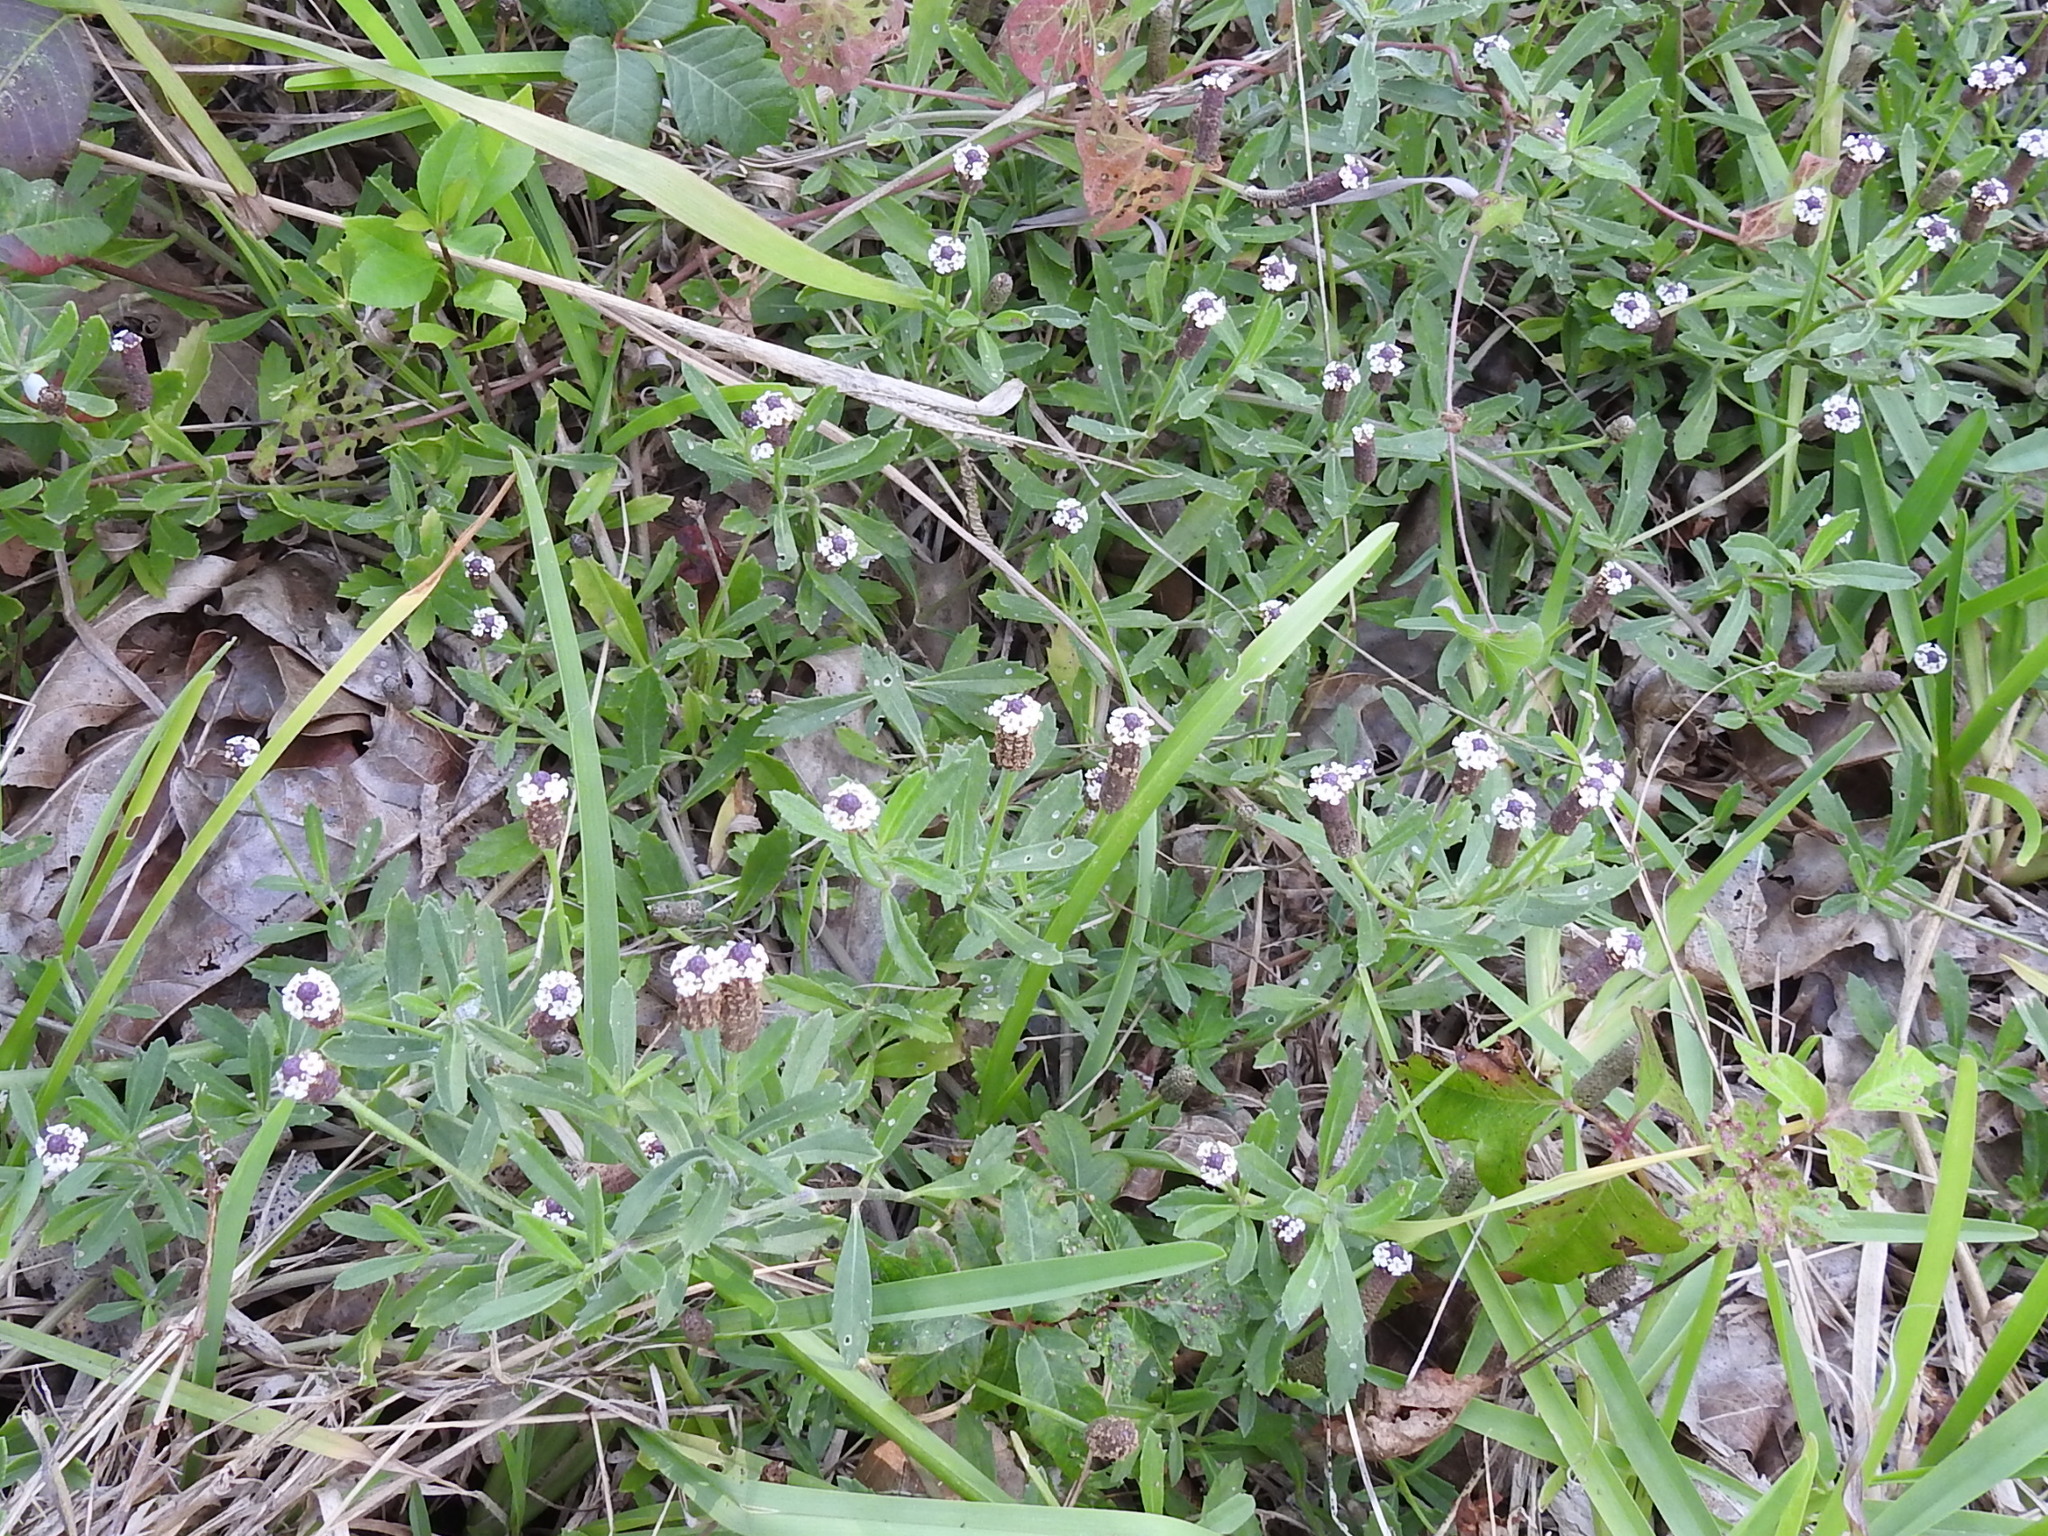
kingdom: Plantae
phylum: Tracheophyta
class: Magnoliopsida
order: Lamiales
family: Verbenaceae
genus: Phyla
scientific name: Phyla nodiflora
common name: Frogfruit
